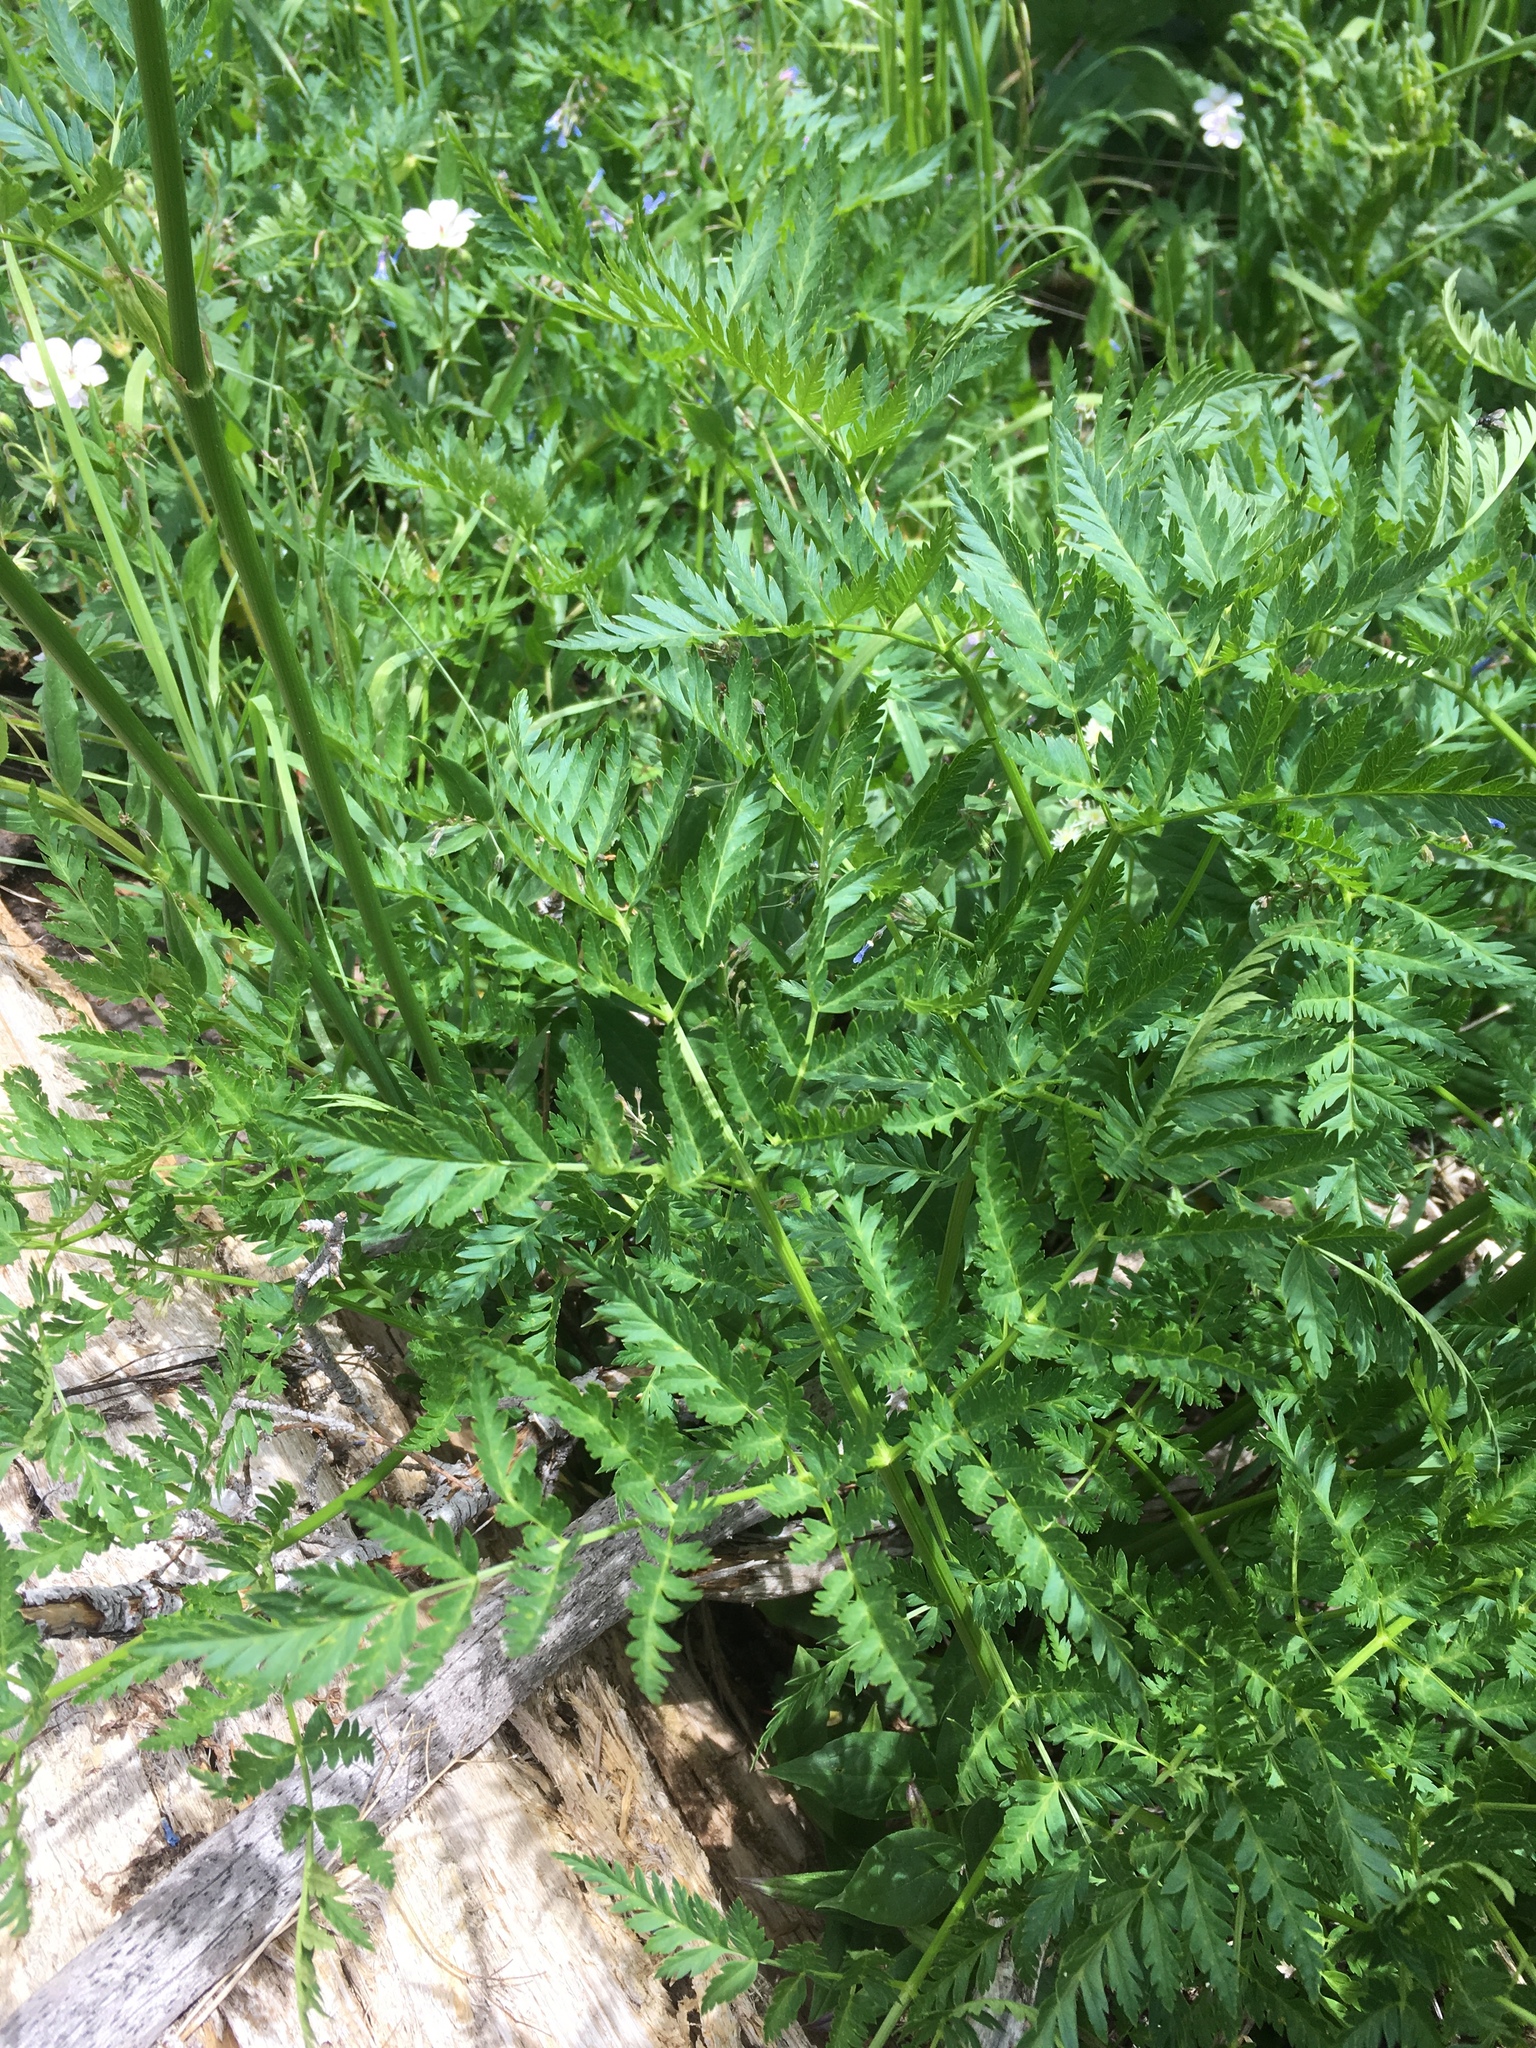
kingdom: Plantae
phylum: Tracheophyta
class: Magnoliopsida
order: Apiales
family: Apiaceae
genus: Ligusticum
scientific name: Ligusticum porteri
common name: Mountain lovage
